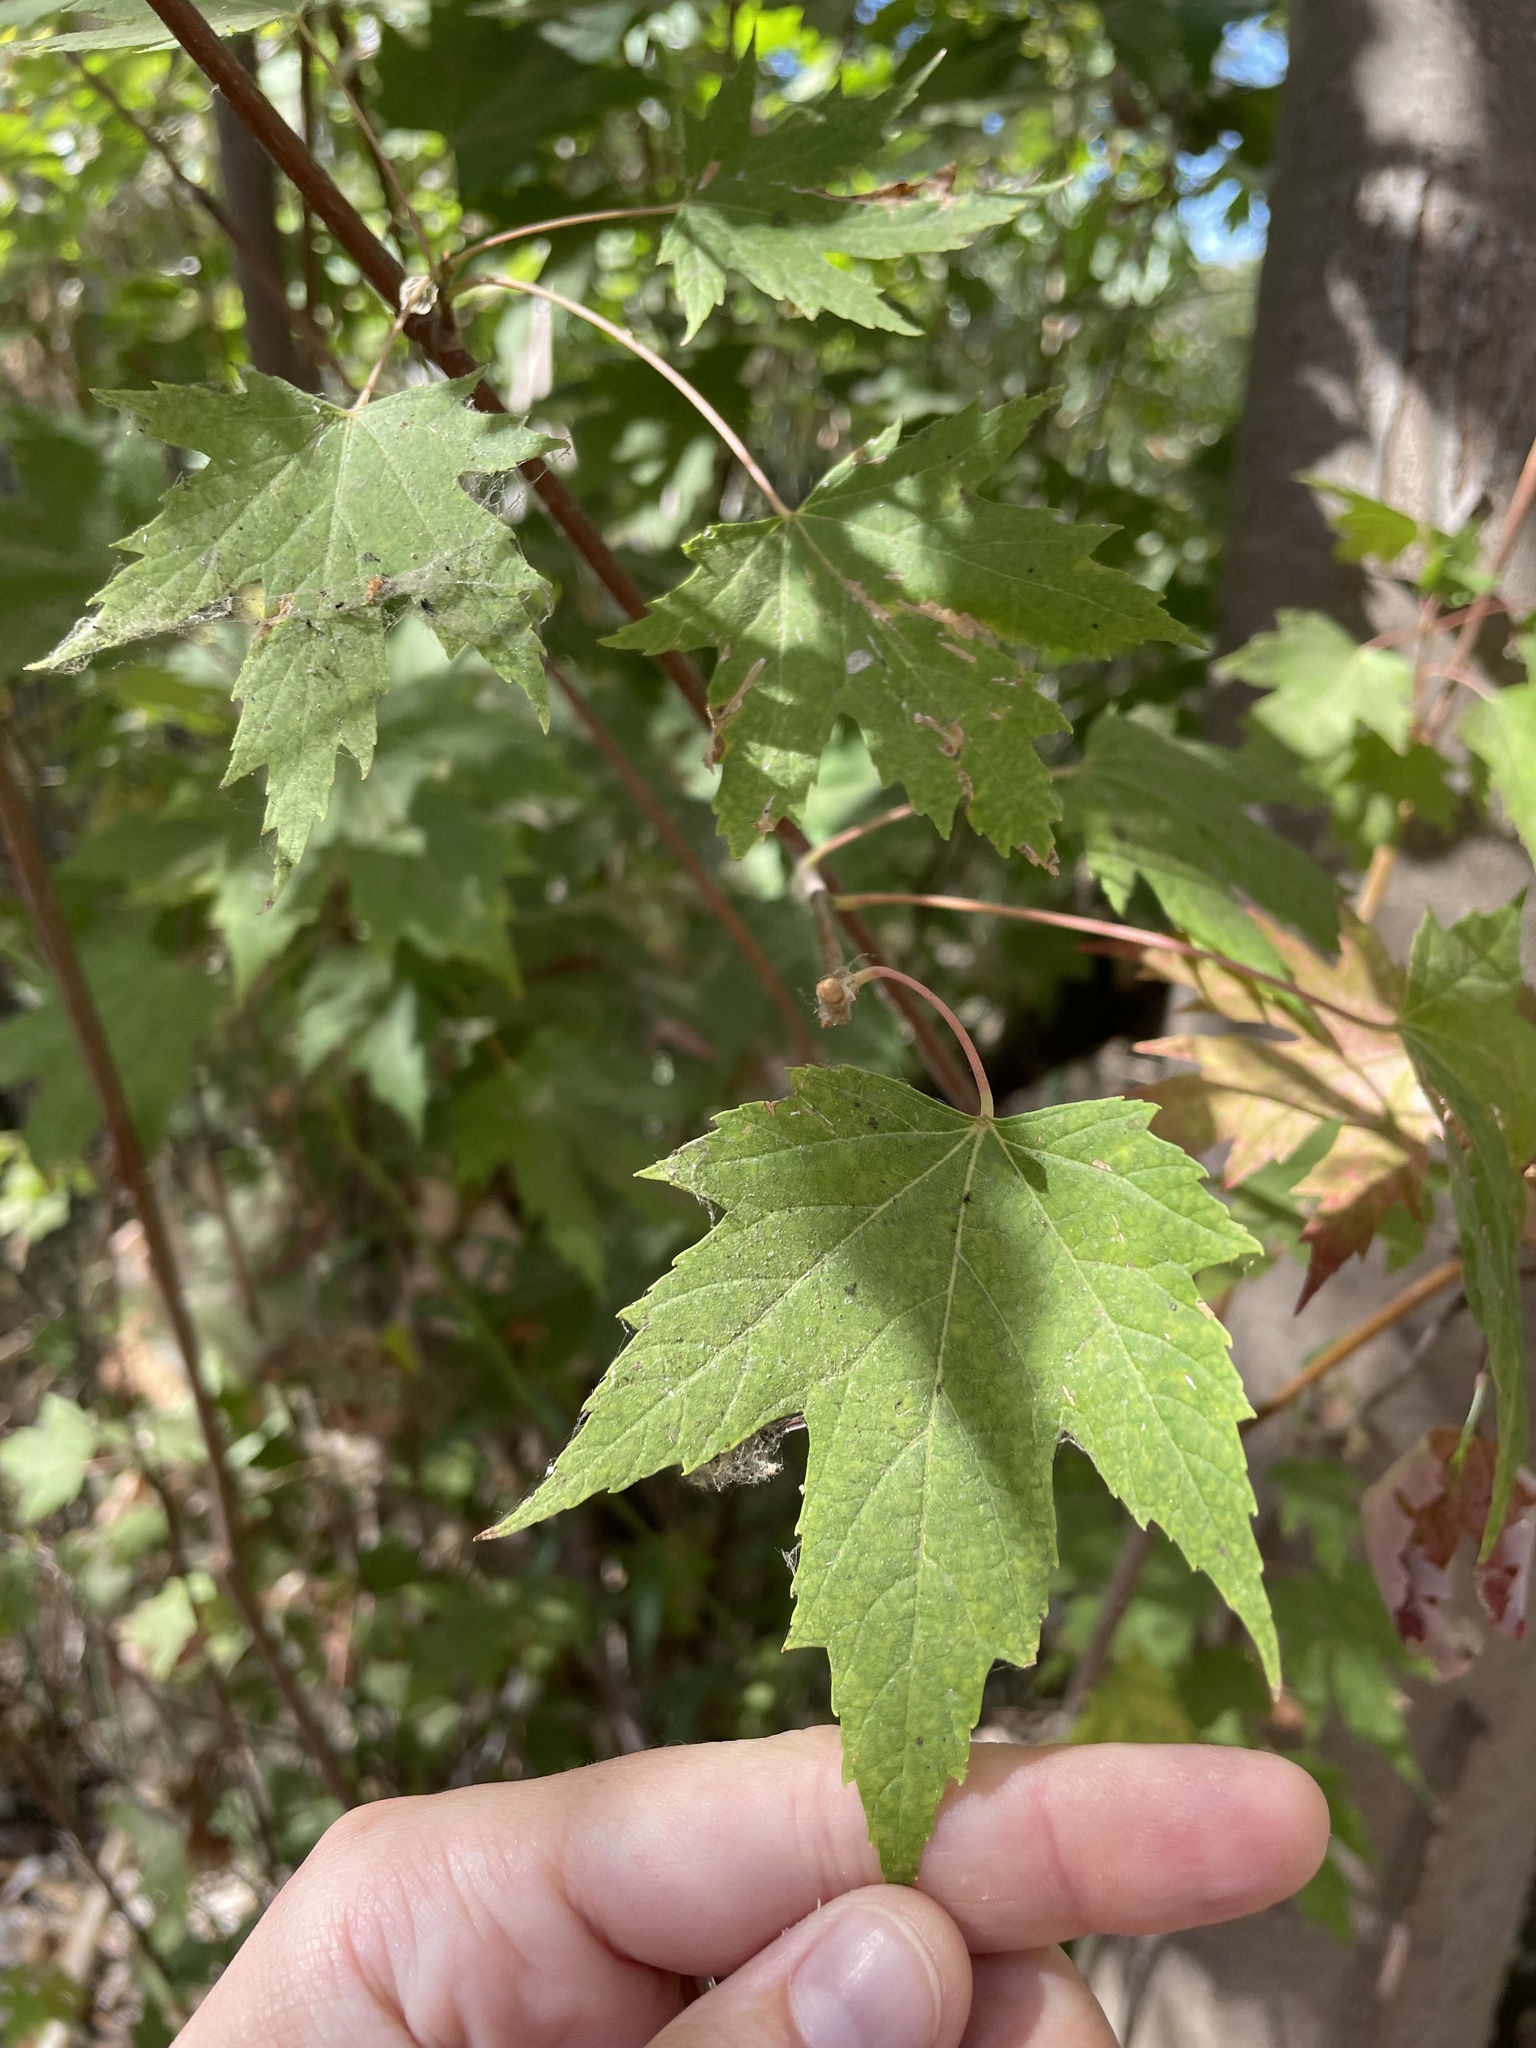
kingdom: Plantae
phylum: Tracheophyta
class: Magnoliopsida
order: Sapindales
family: Sapindaceae
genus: Acer
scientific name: Acer saccharinum
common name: Silver maple
